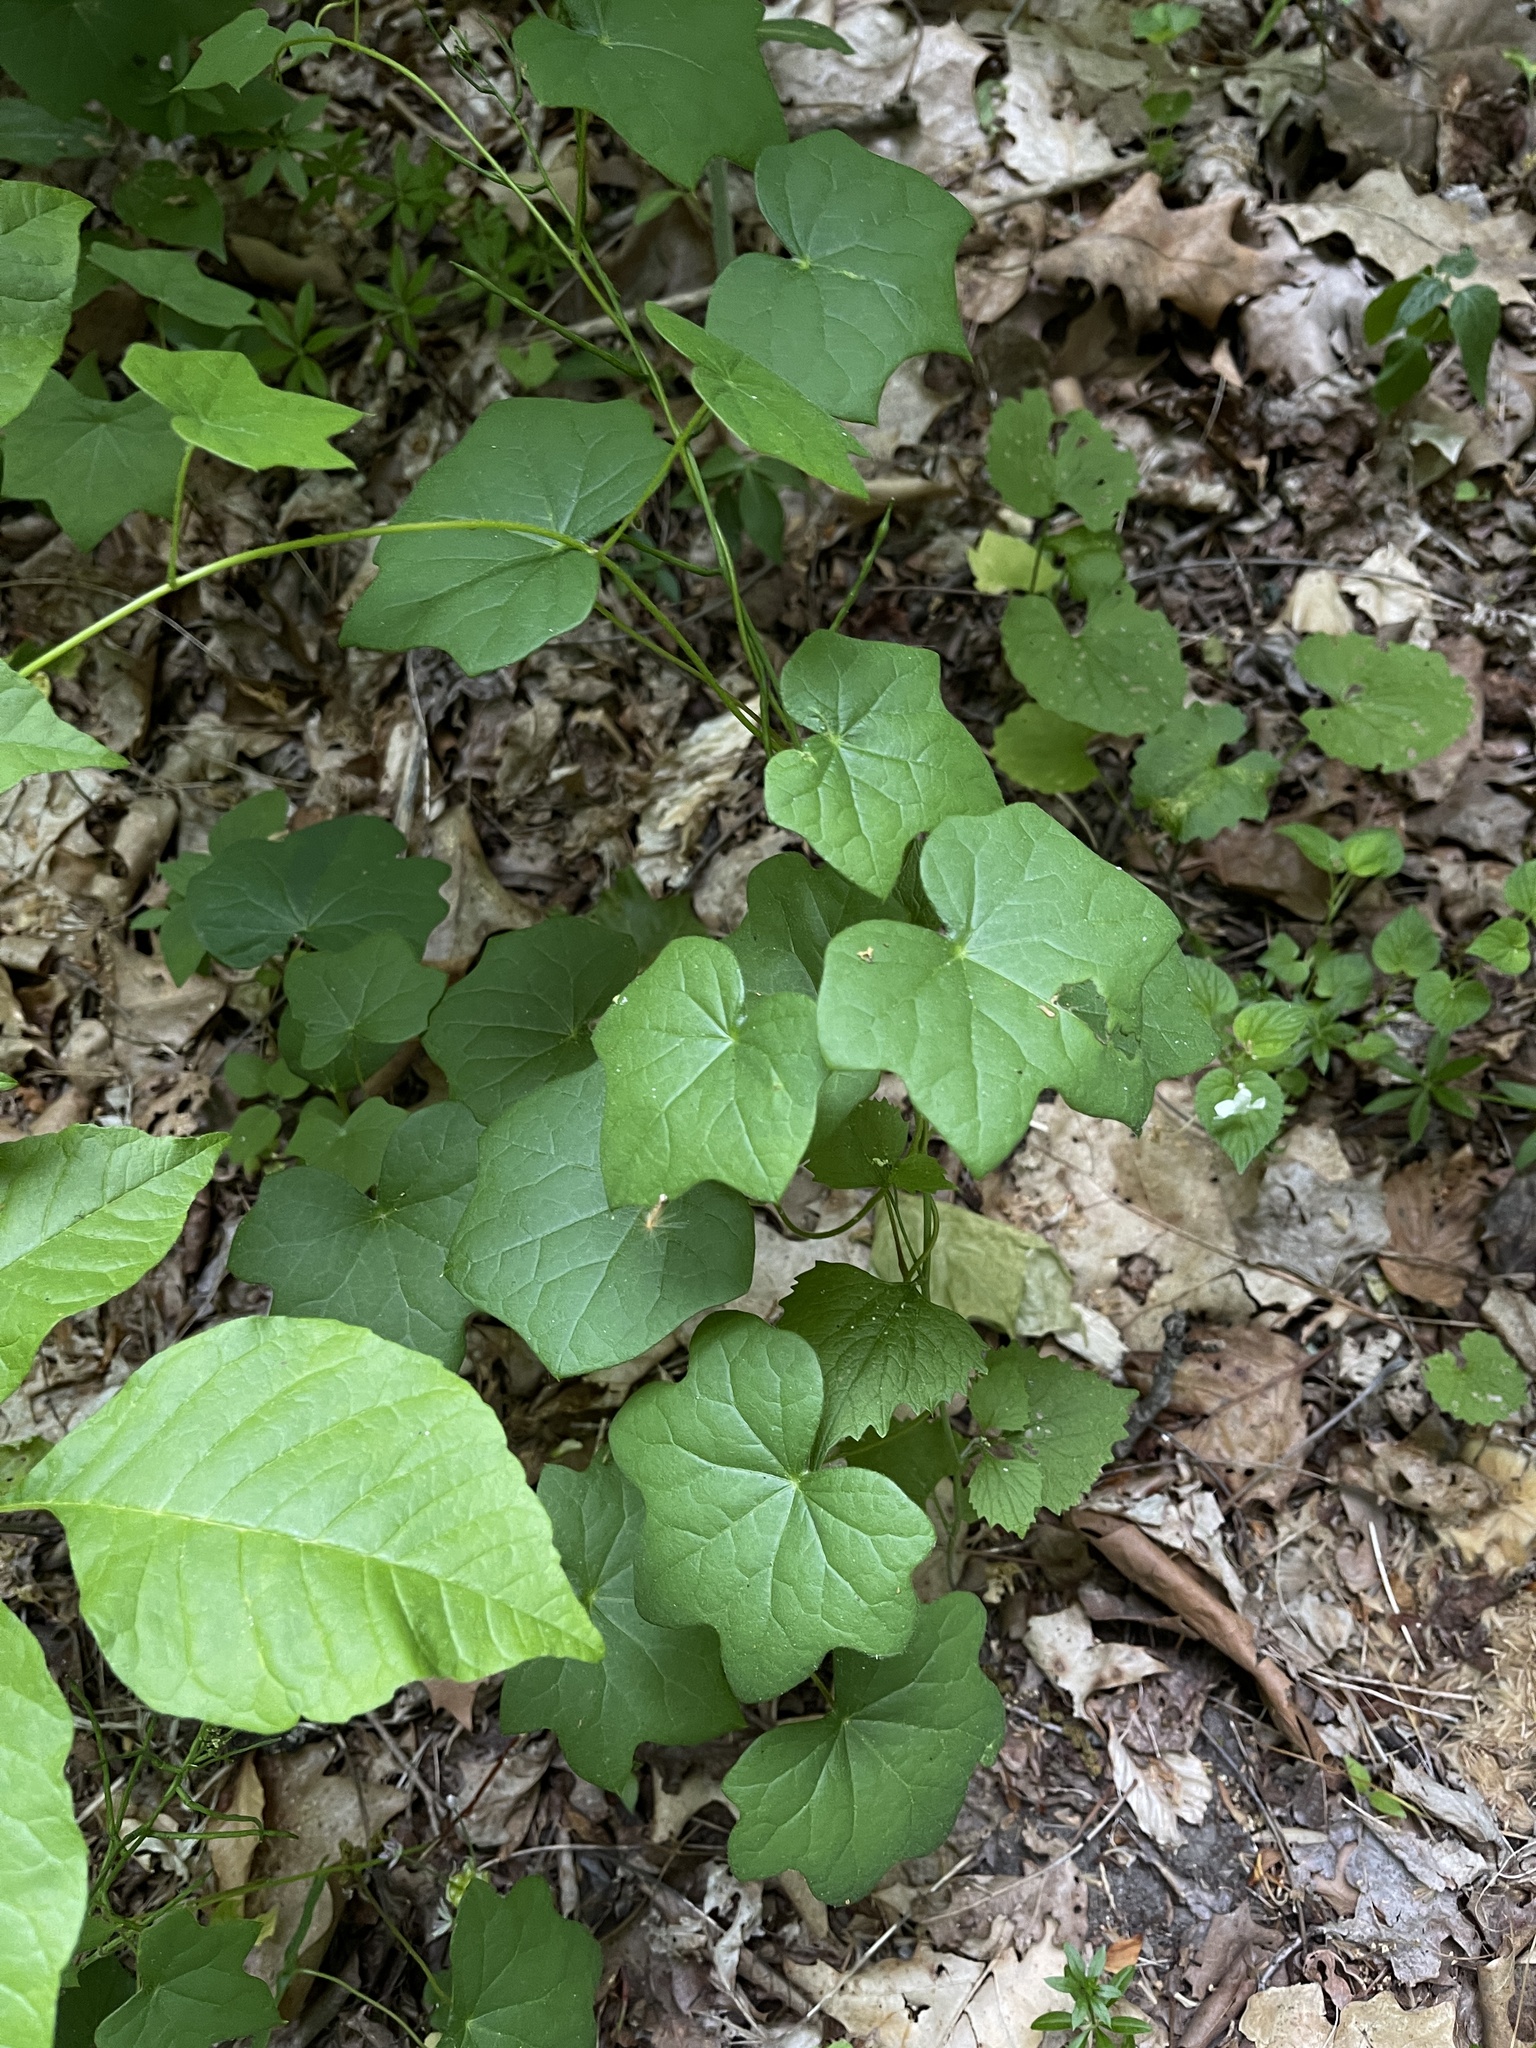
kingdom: Plantae
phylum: Tracheophyta
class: Magnoliopsida
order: Ranunculales
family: Menispermaceae
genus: Menispermum
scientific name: Menispermum canadense
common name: Moonseed
